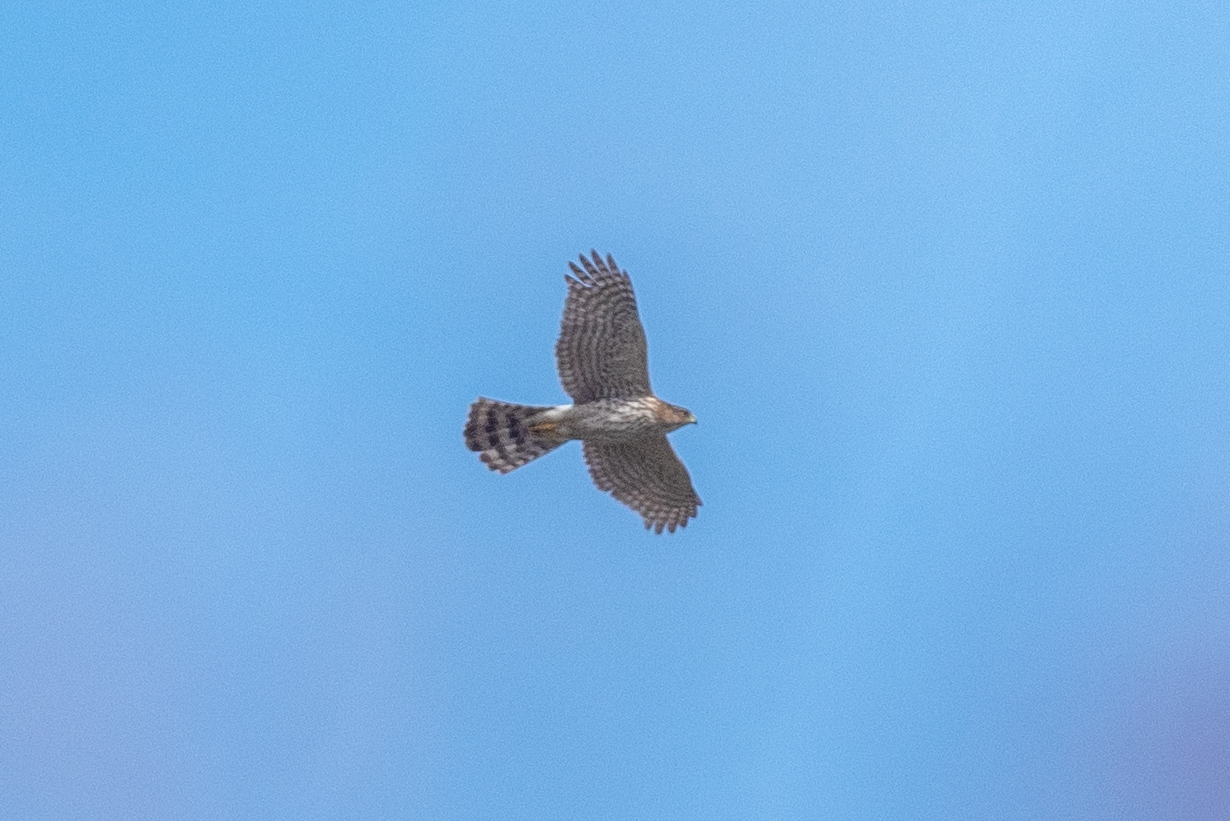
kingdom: Animalia
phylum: Chordata
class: Aves
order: Accipitriformes
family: Accipitridae
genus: Accipiter
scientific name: Accipiter cooperii
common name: Cooper's hawk
